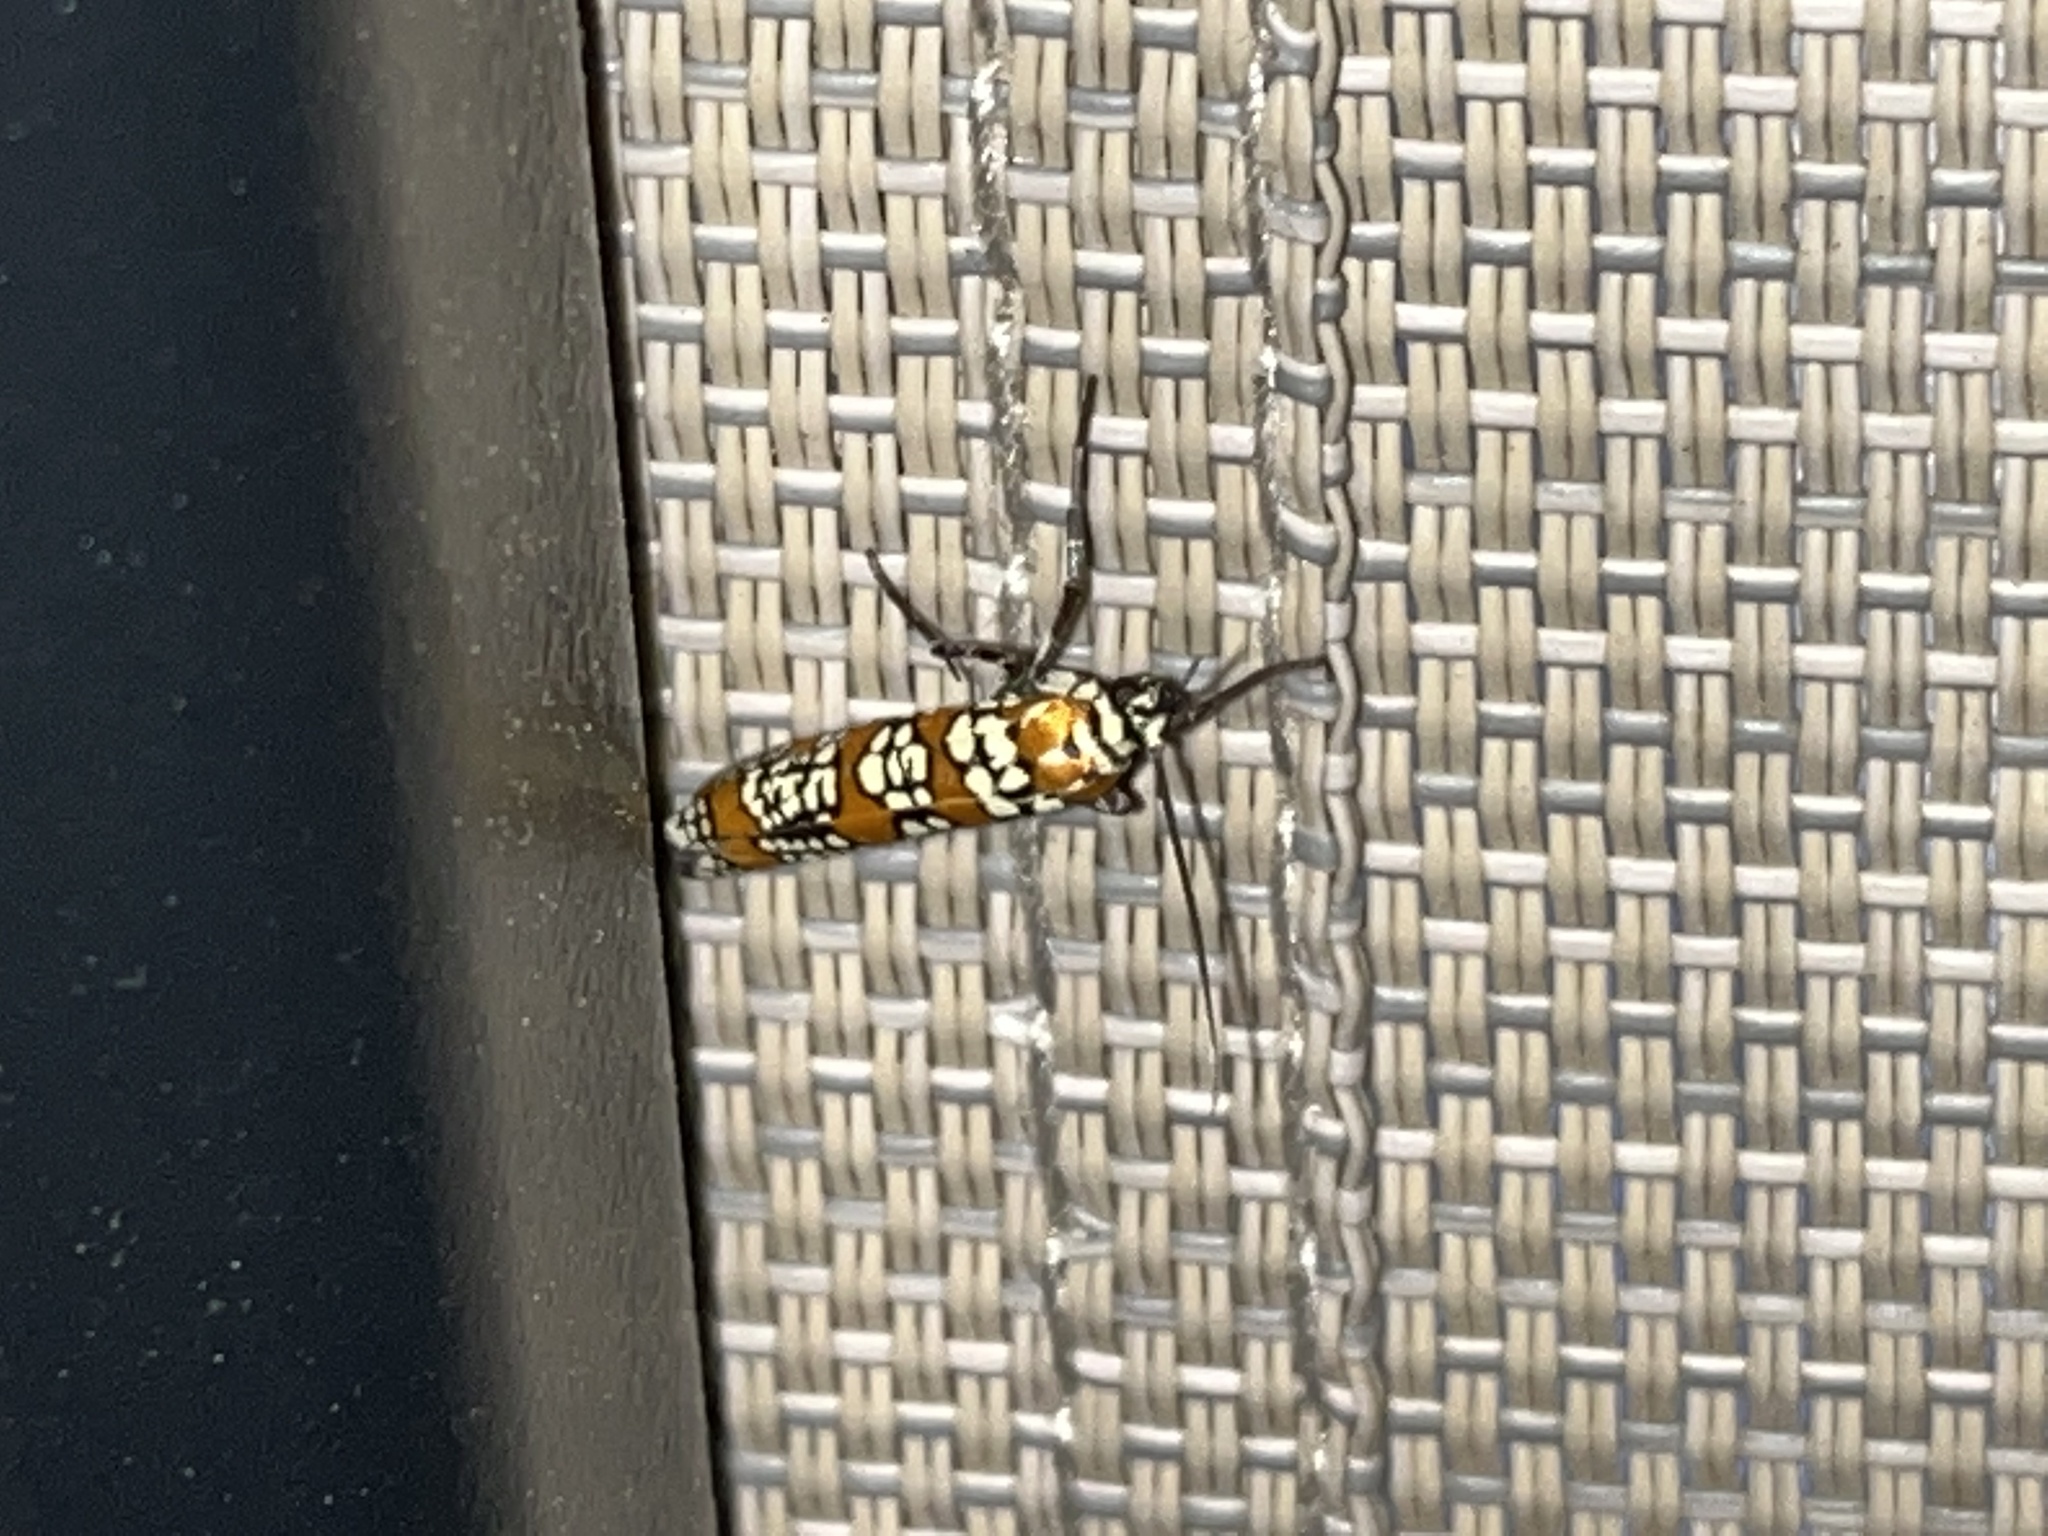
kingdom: Animalia
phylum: Arthropoda
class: Insecta
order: Lepidoptera
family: Attevidae
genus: Atteva
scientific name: Atteva punctella
